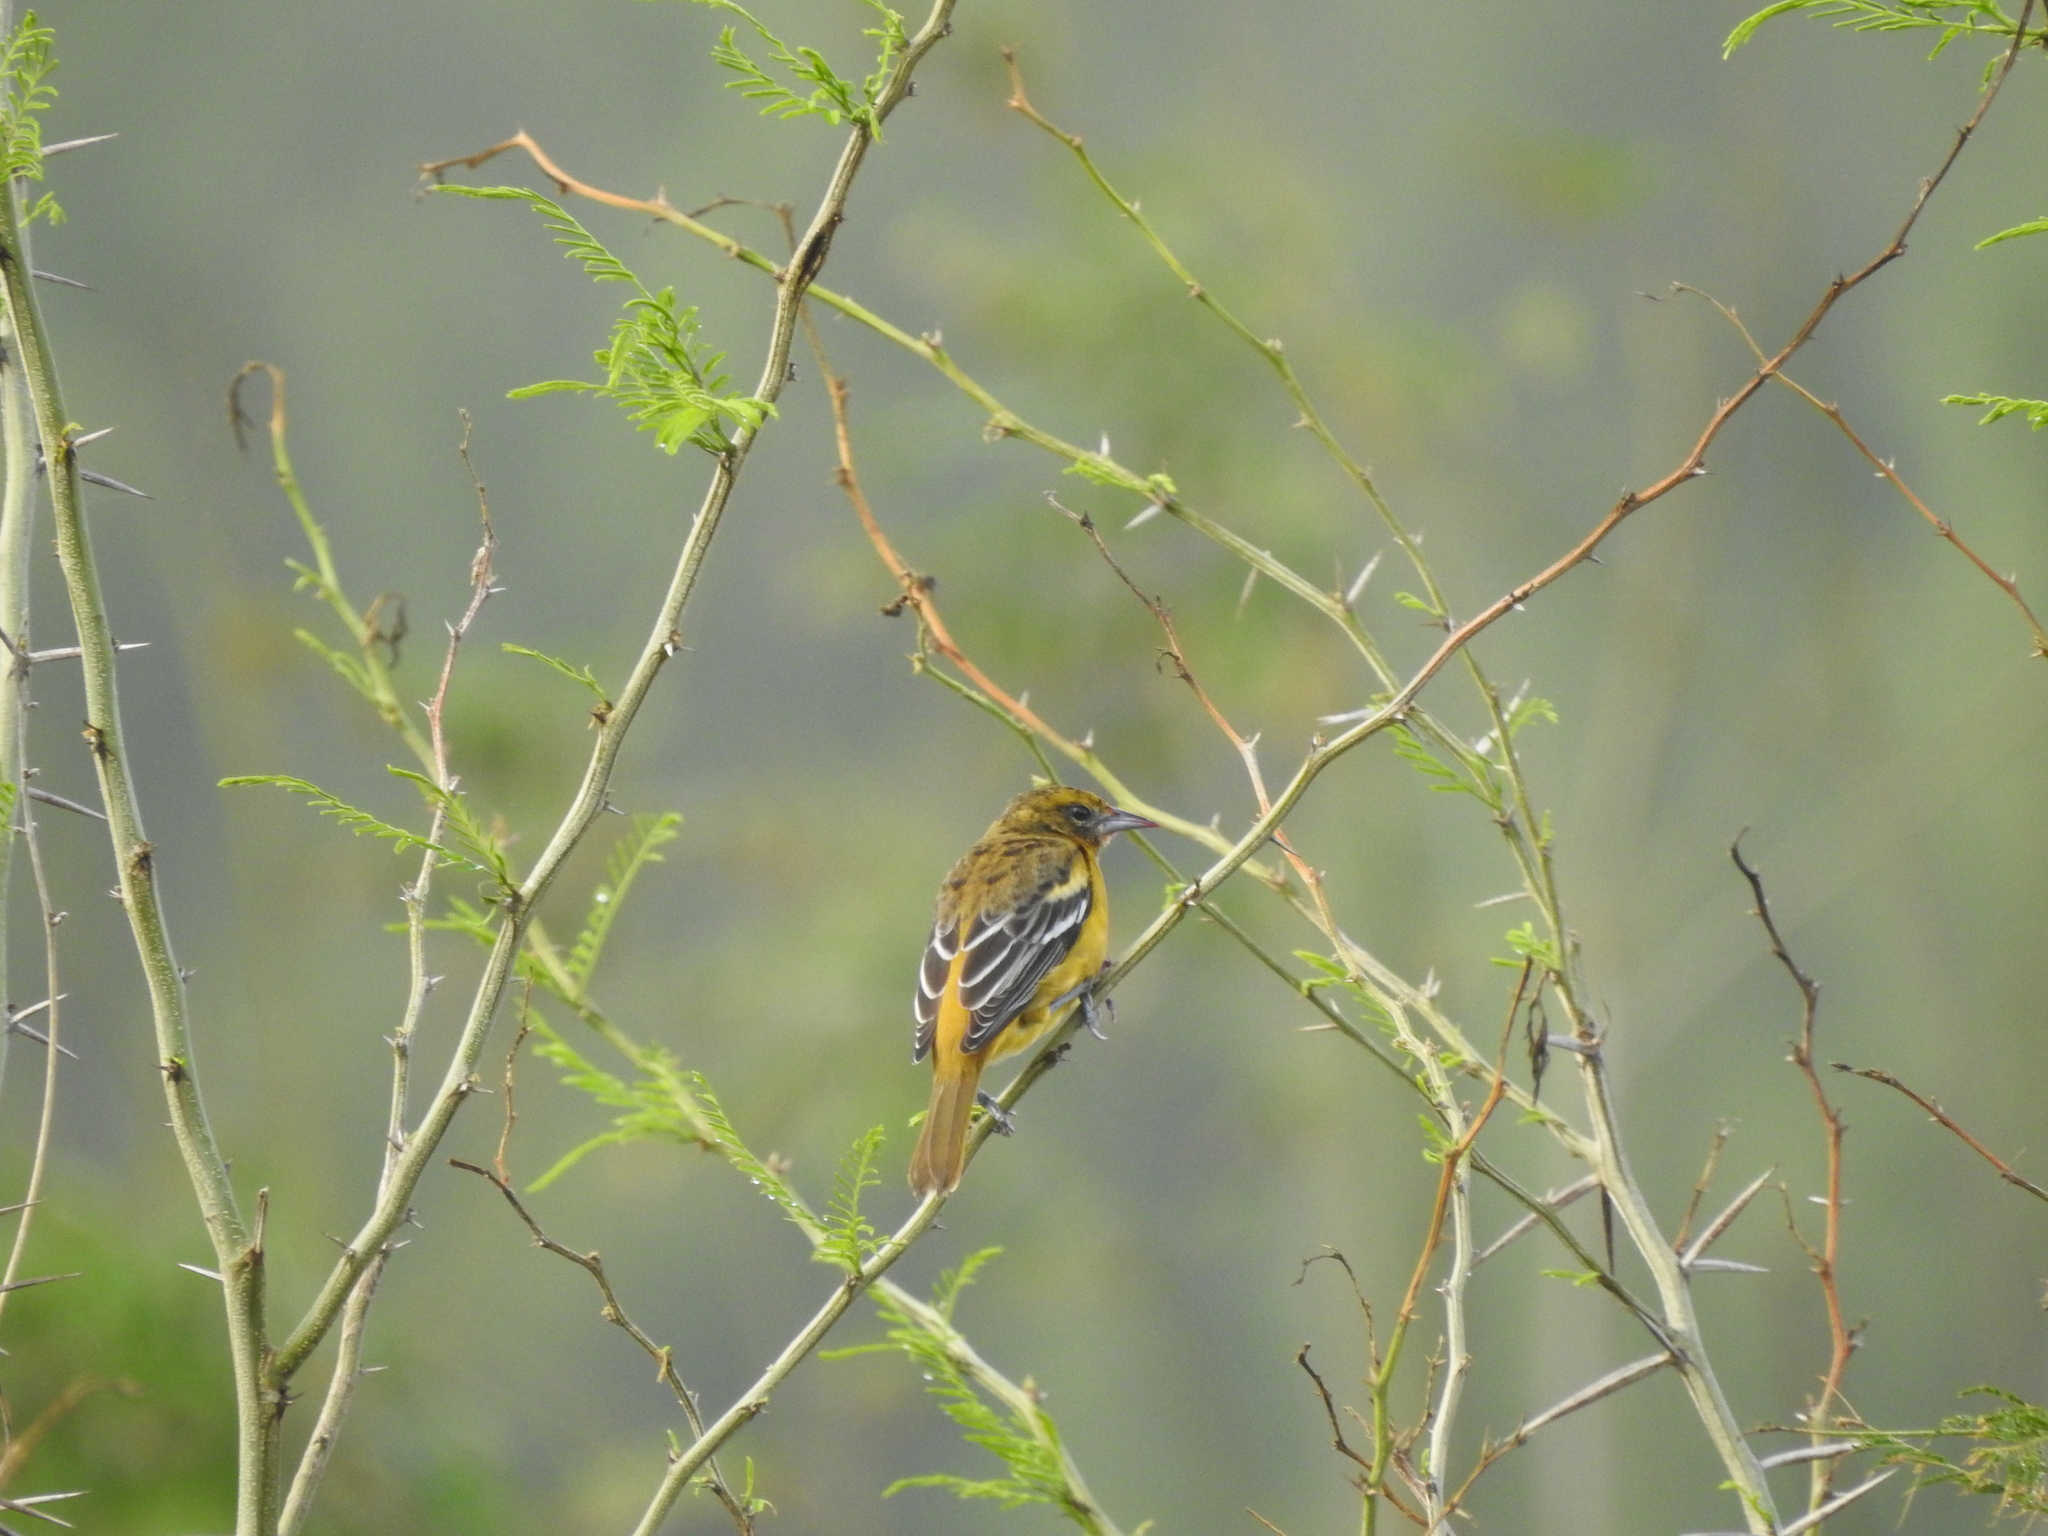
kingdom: Animalia
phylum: Chordata
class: Aves
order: Passeriformes
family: Icteridae
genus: Icterus
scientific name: Icterus galbula
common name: Baltimore oriole
